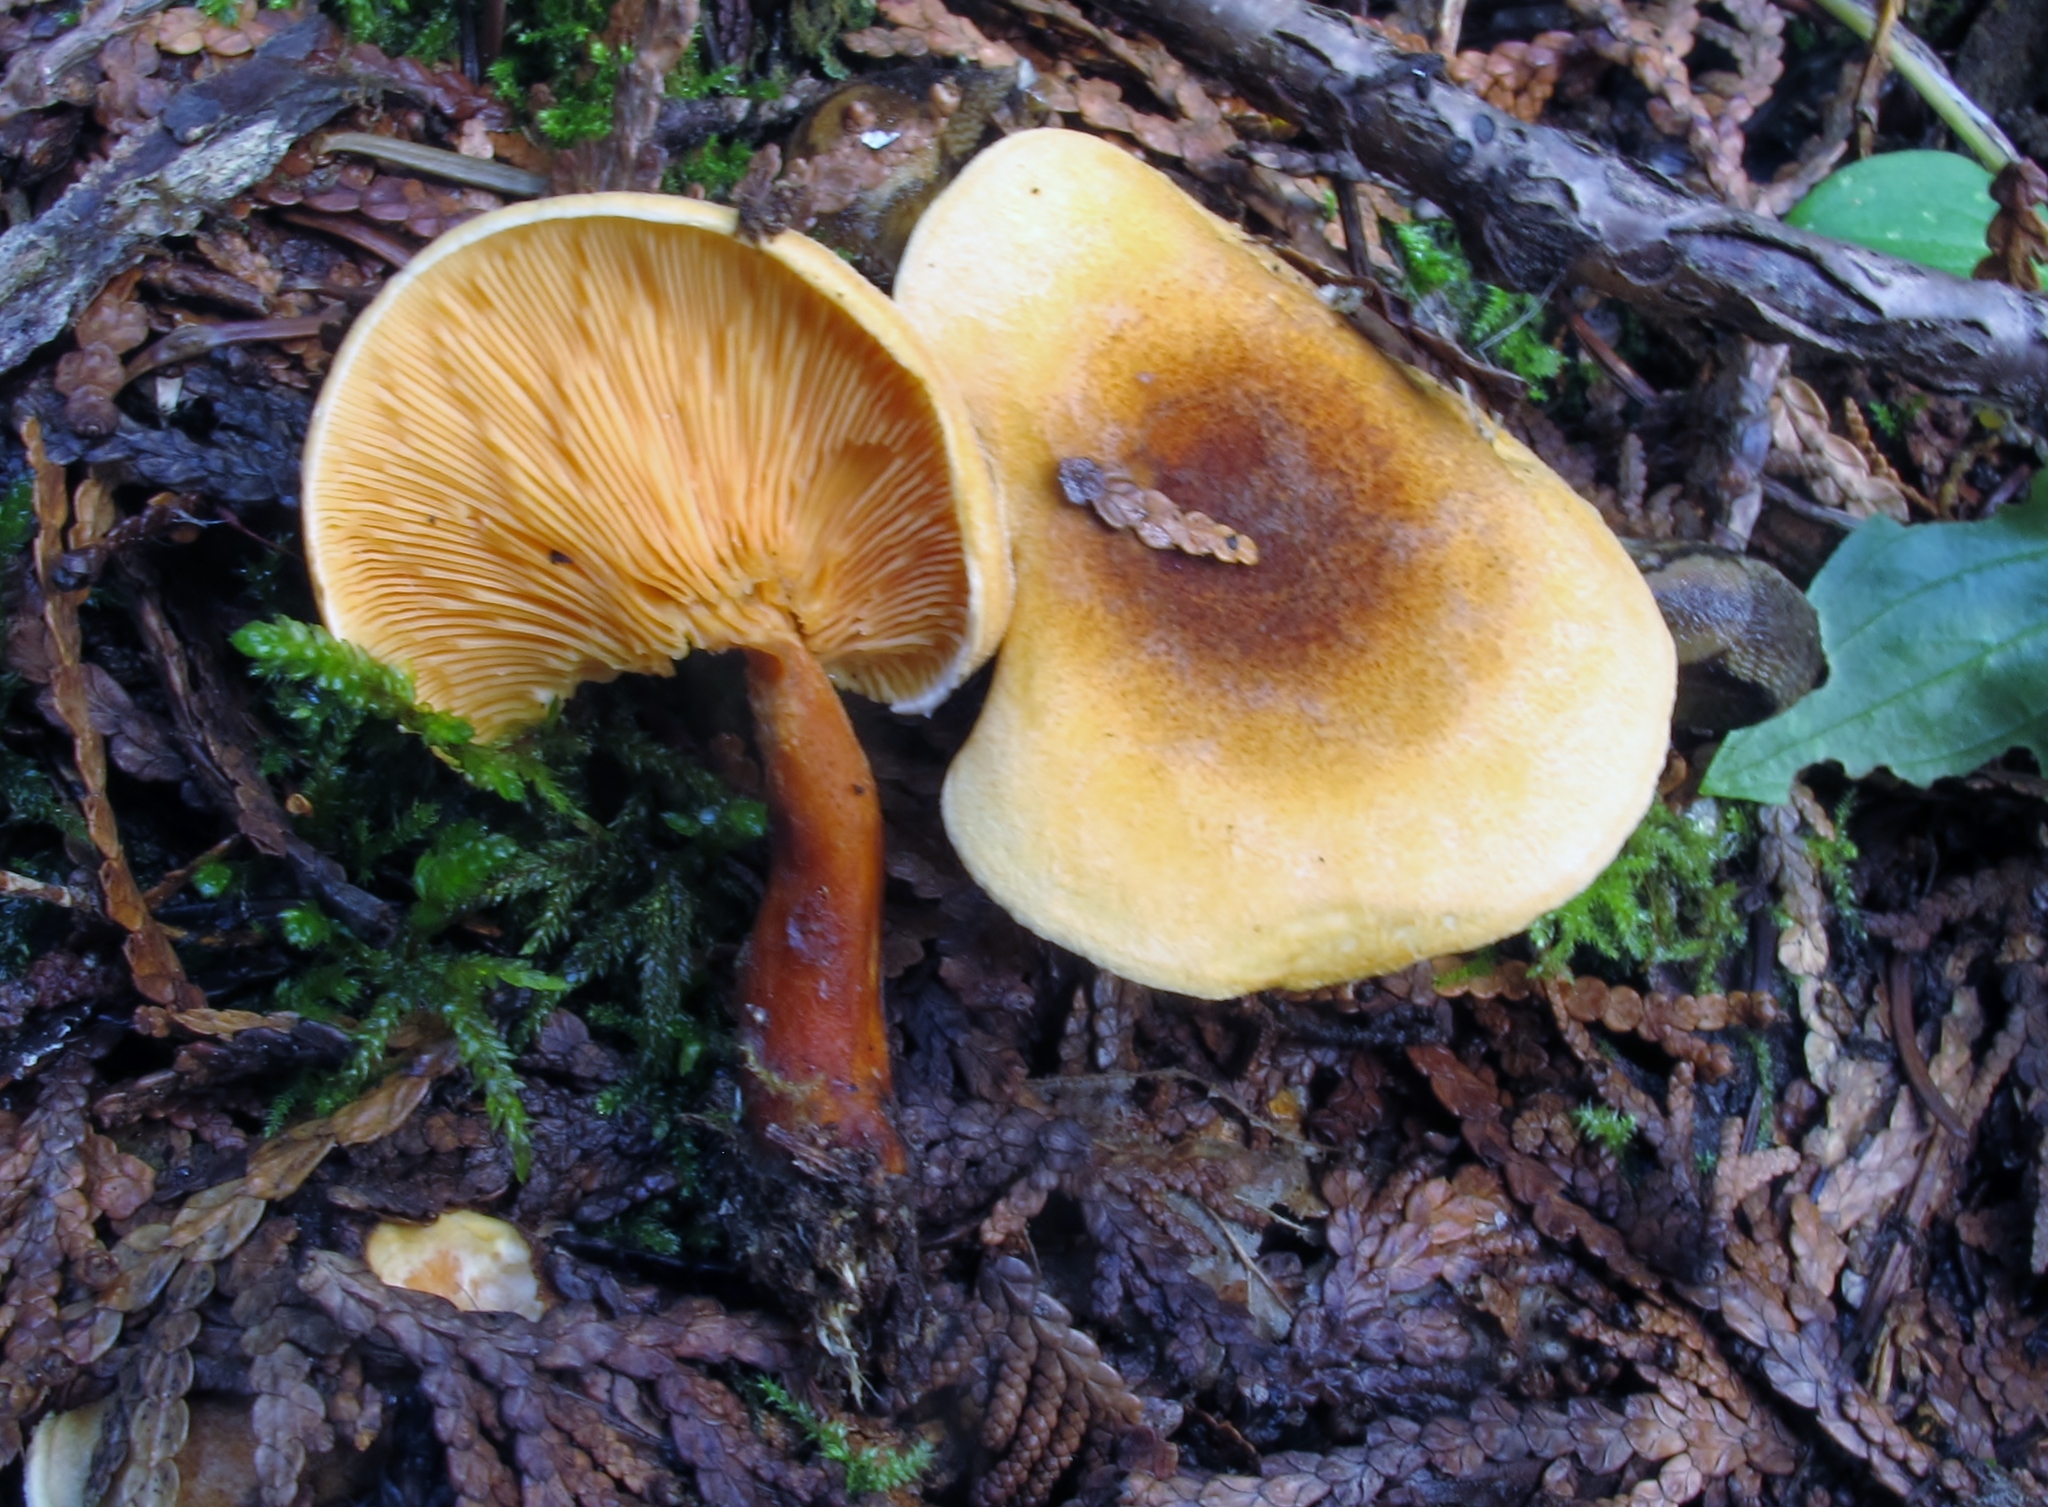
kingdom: Fungi
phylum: Basidiomycota
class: Agaricomycetes
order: Boletales
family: Hygrophoropsidaceae
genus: Hygrophoropsis
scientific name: Hygrophoropsis aurantiaca
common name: False chanterelle
